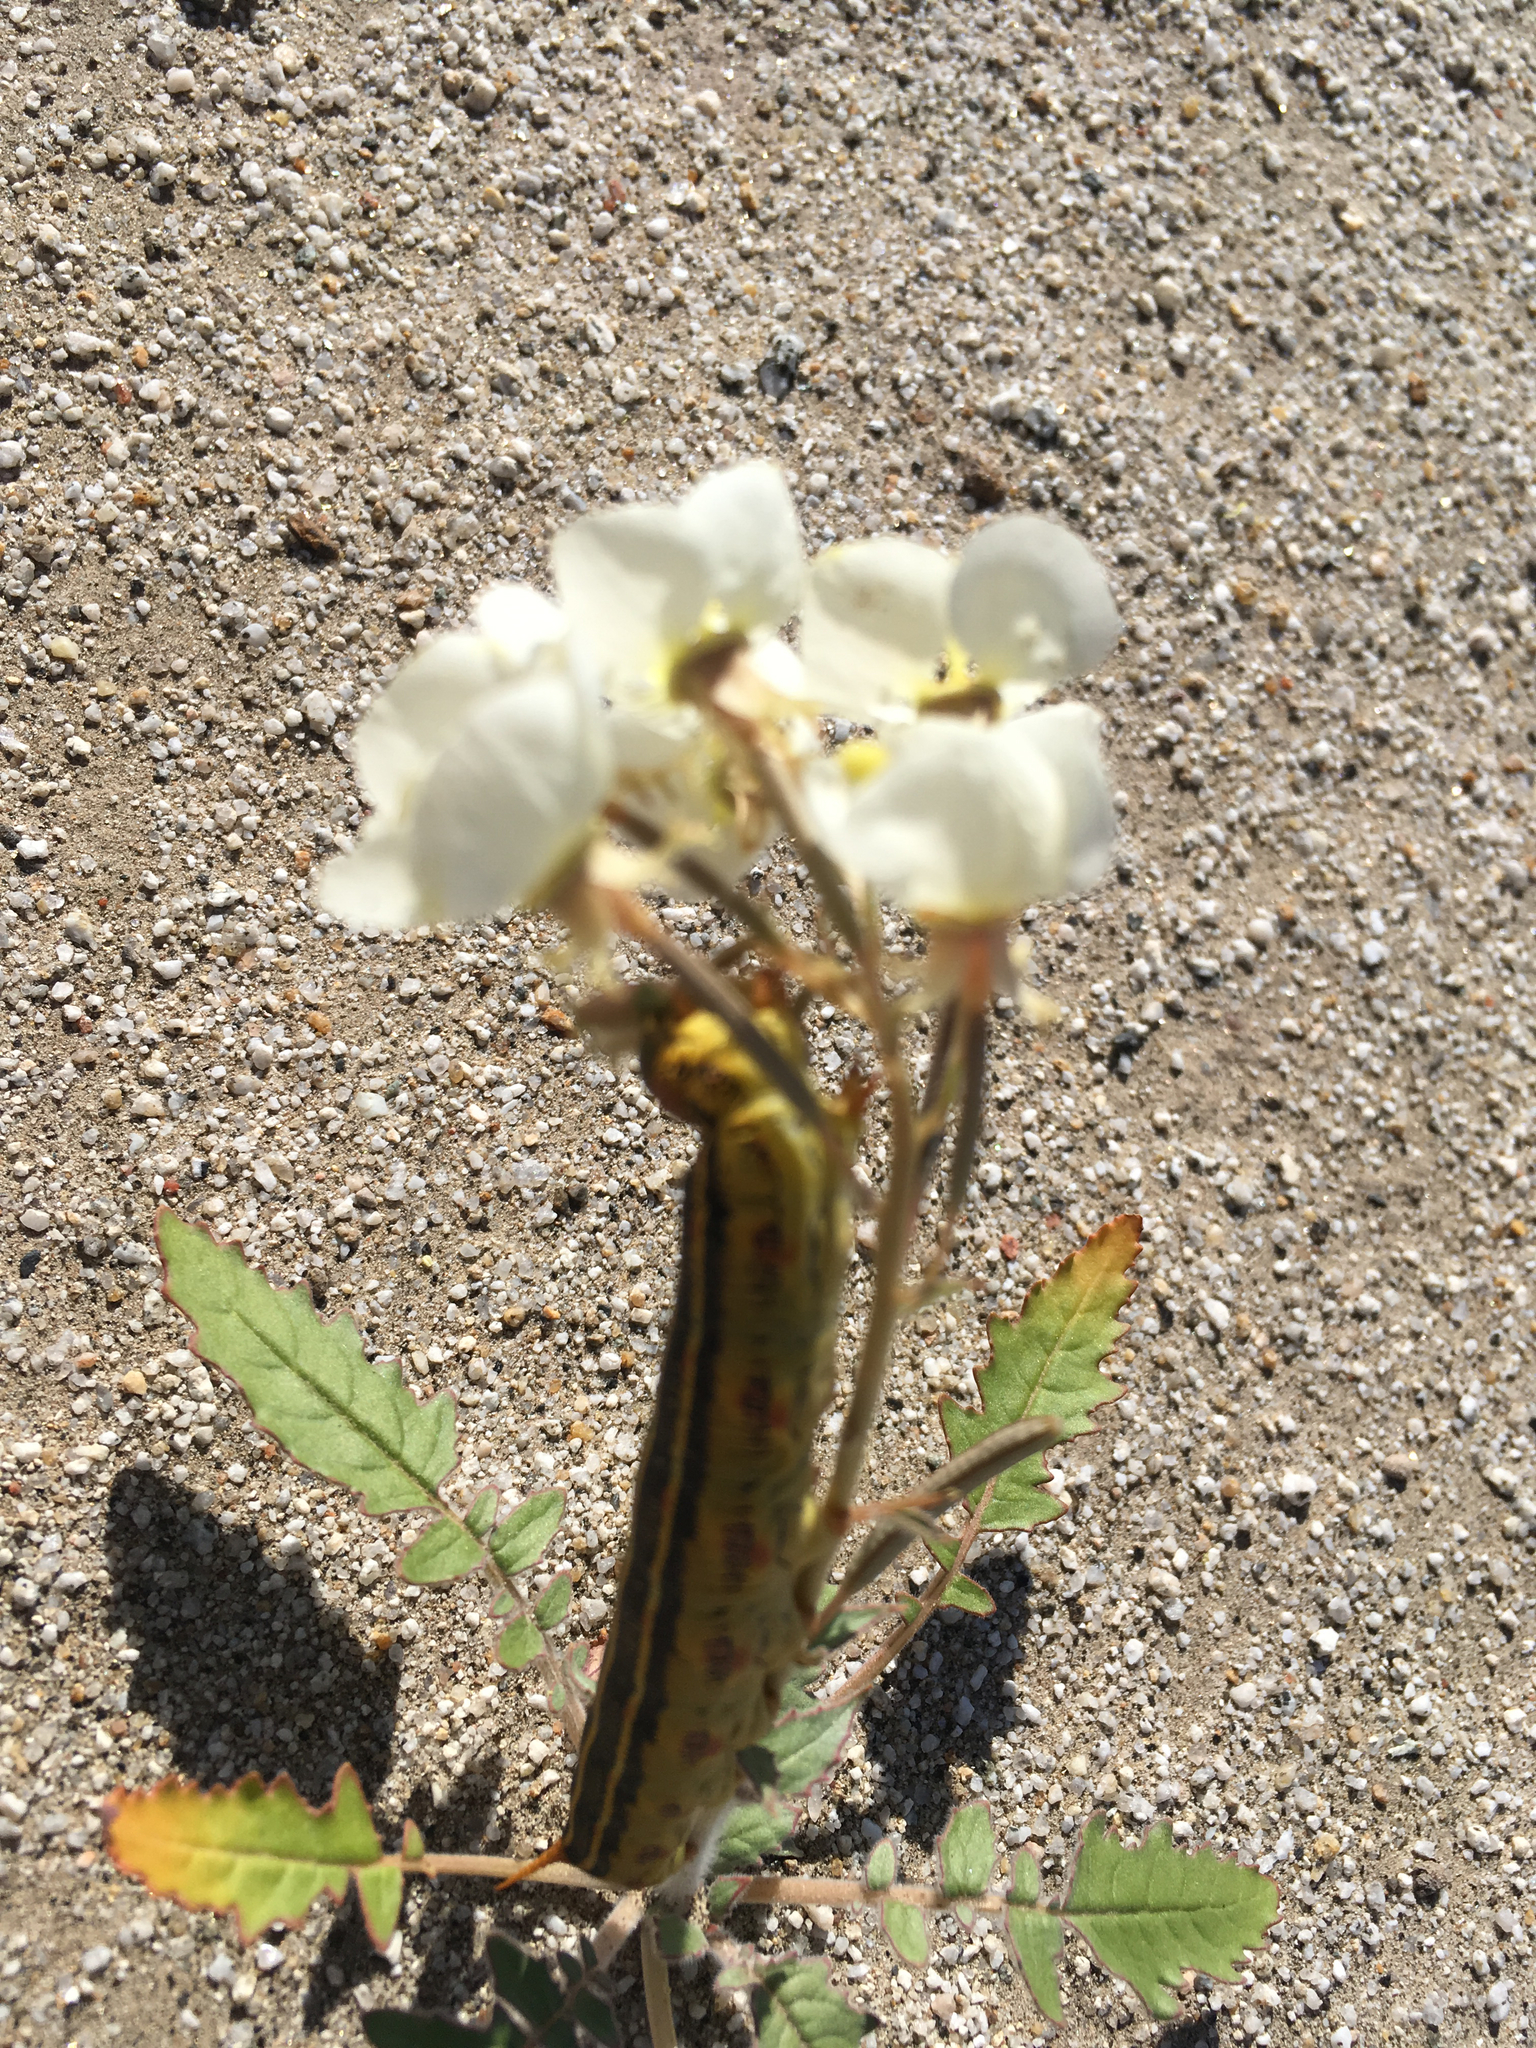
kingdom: Plantae
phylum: Tracheophyta
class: Magnoliopsida
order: Myrtales
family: Onagraceae
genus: Chylismia
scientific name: Chylismia claviformis
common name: Browneyes
